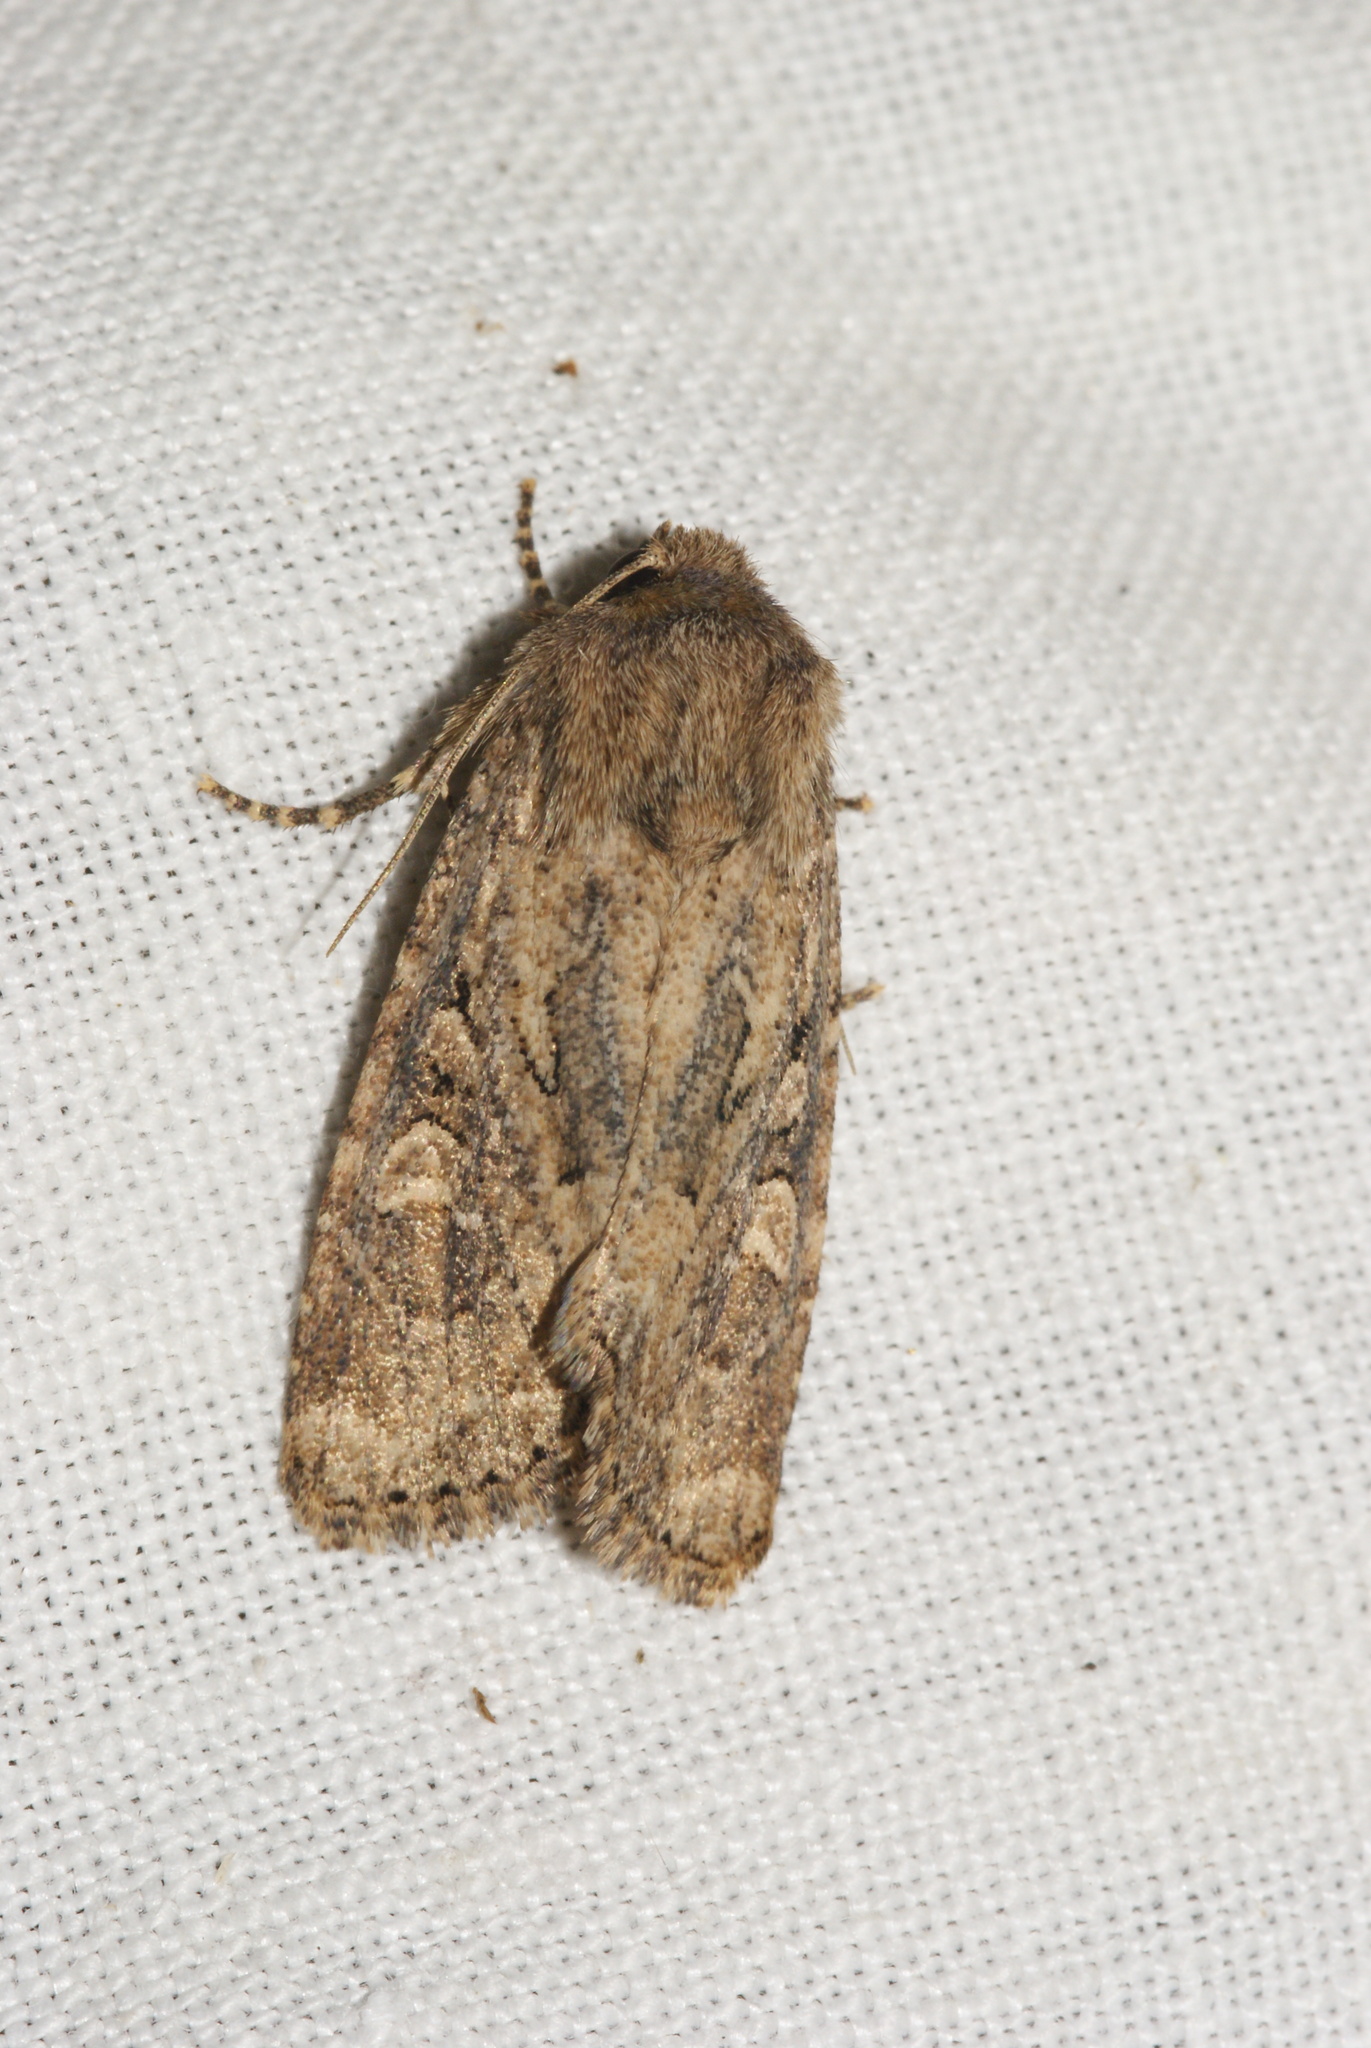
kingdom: Animalia
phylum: Arthropoda
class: Insecta
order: Lepidoptera
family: Noctuidae
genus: Luperina
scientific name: Luperina testacea
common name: Flounced rustic
